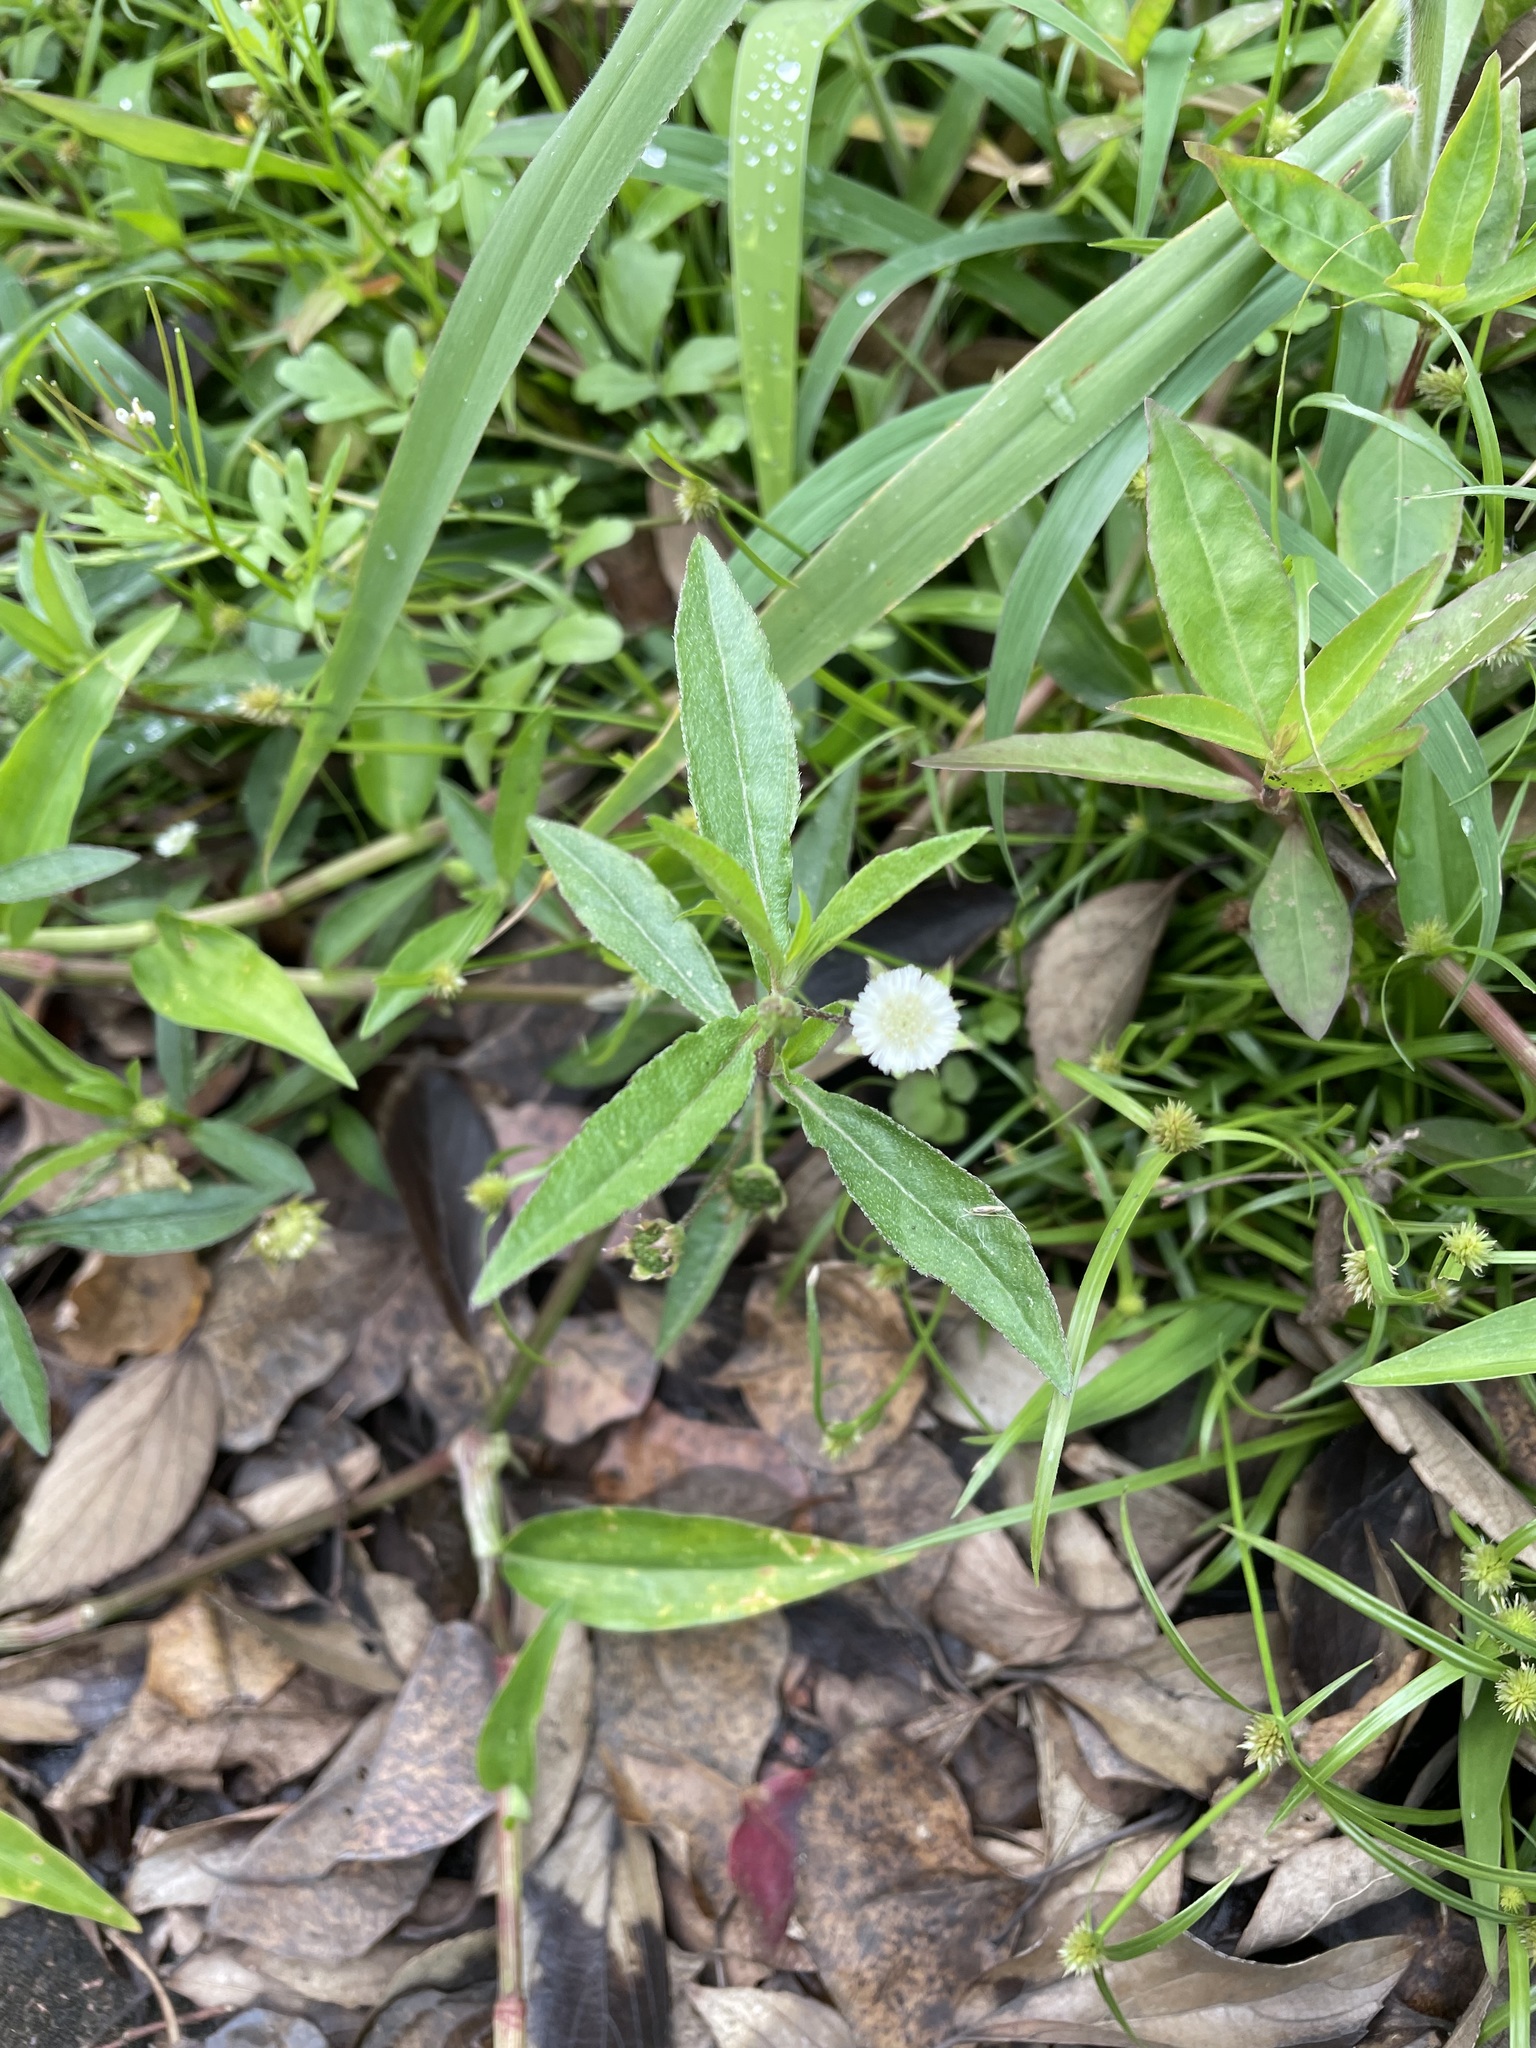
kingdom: Plantae
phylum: Tracheophyta
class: Magnoliopsida
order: Asterales
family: Asteraceae
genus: Eclipta
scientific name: Eclipta prostrata
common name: False daisy
